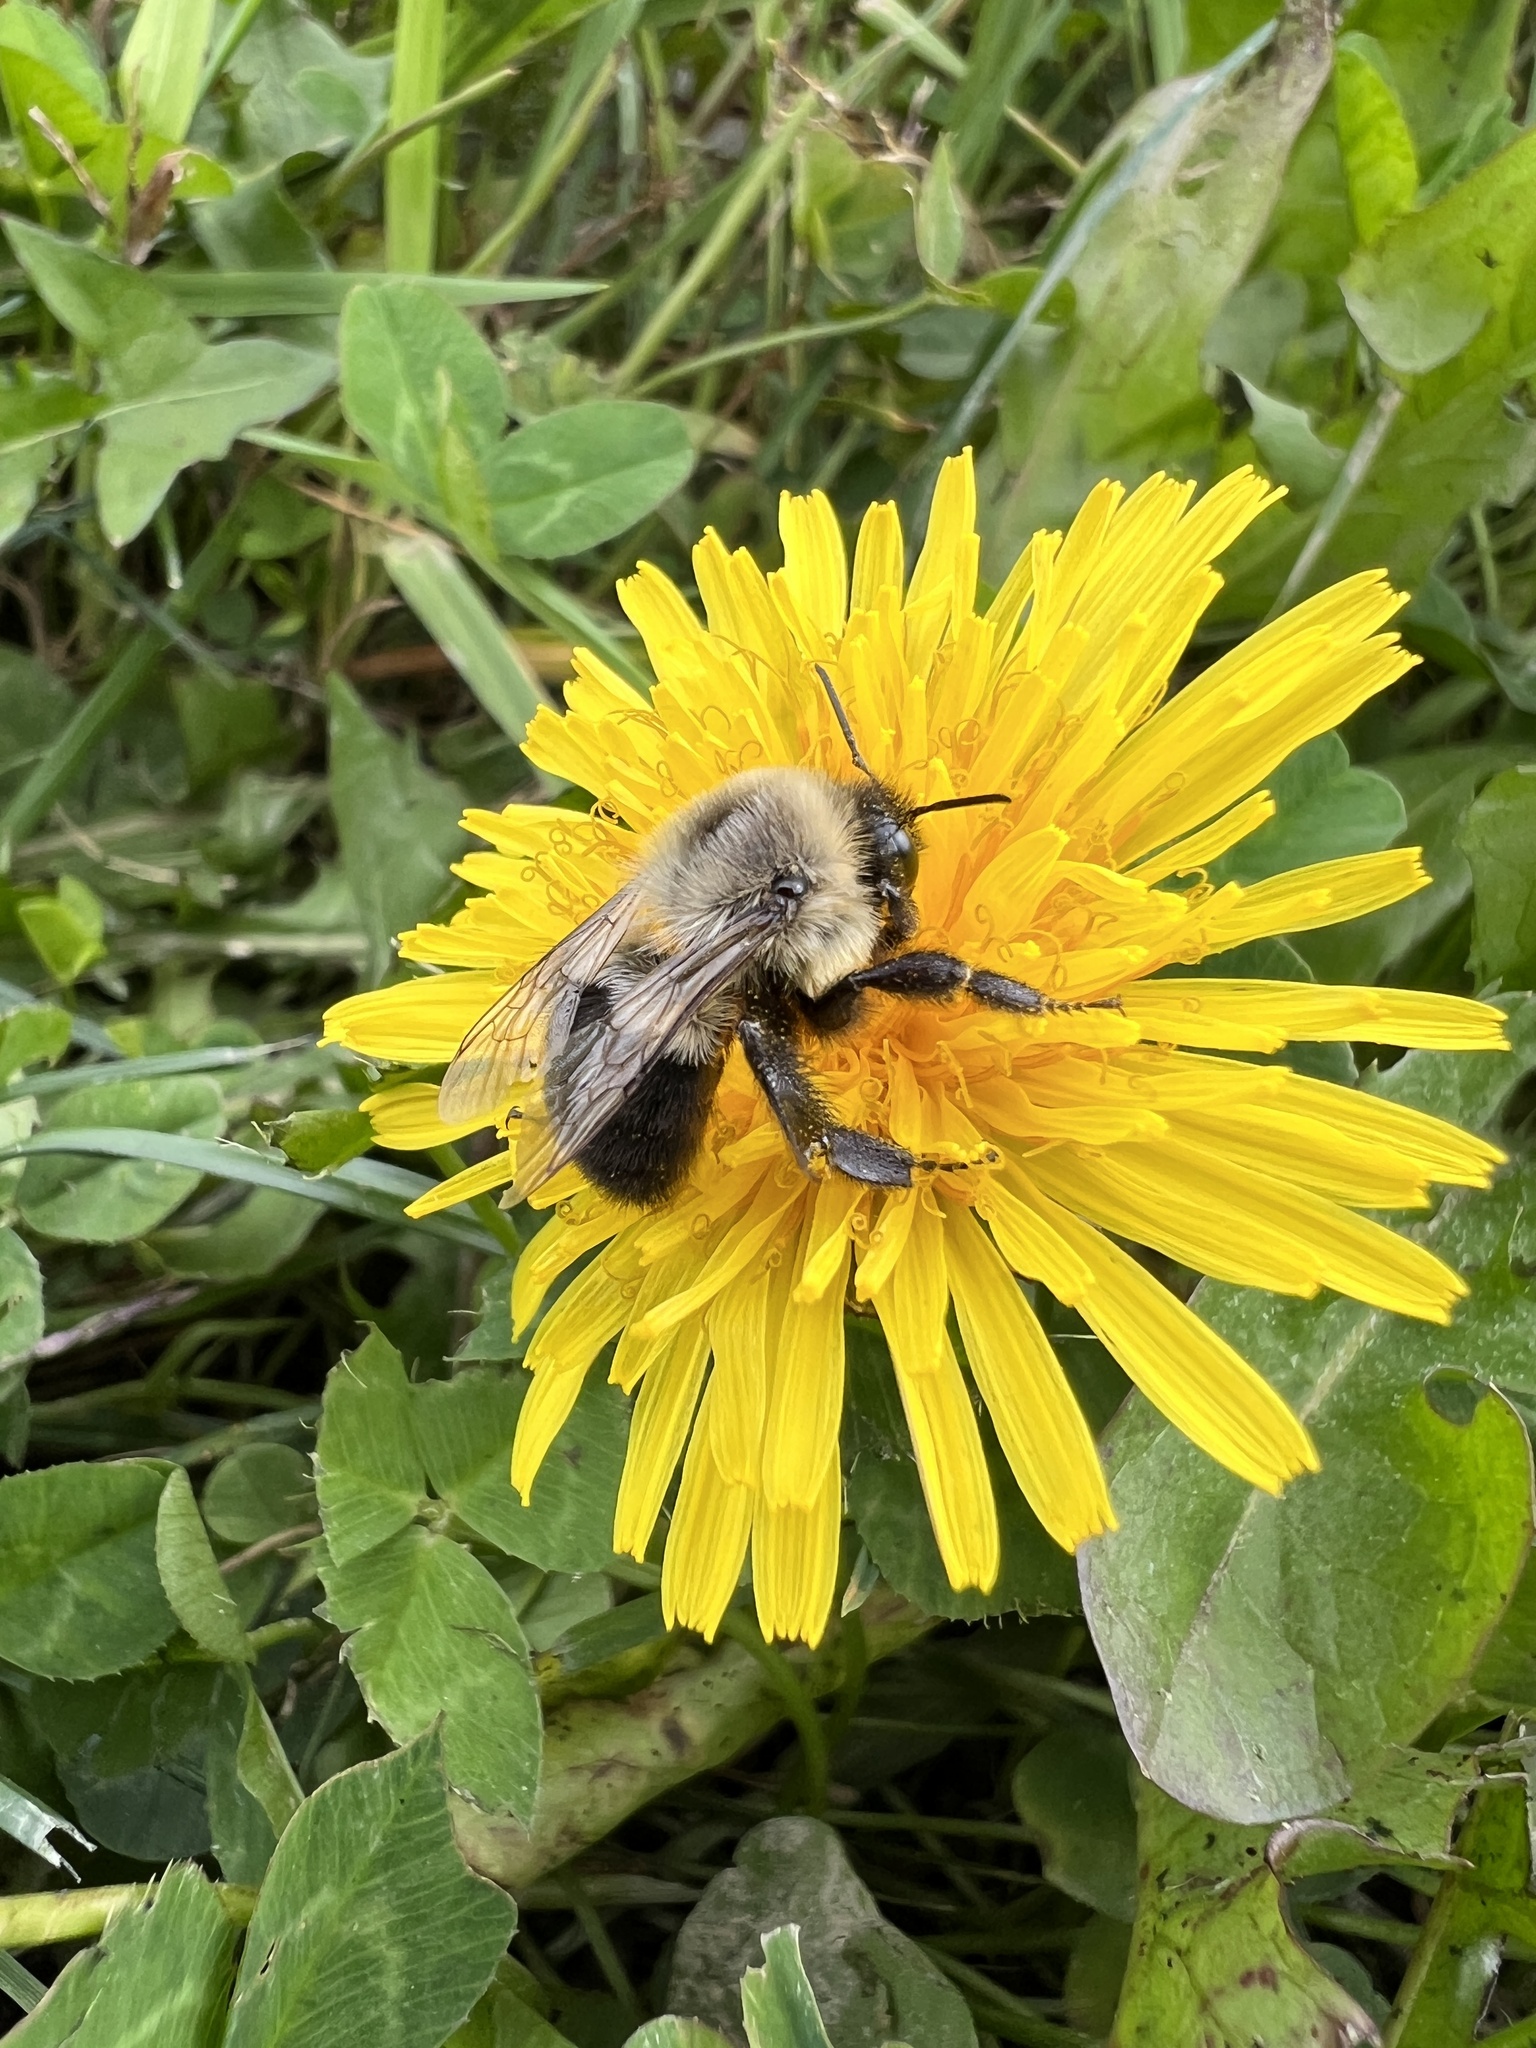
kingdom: Animalia
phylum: Arthropoda
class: Insecta
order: Hymenoptera
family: Apidae
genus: Bombus
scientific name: Bombus impatiens
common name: Common eastern bumble bee
